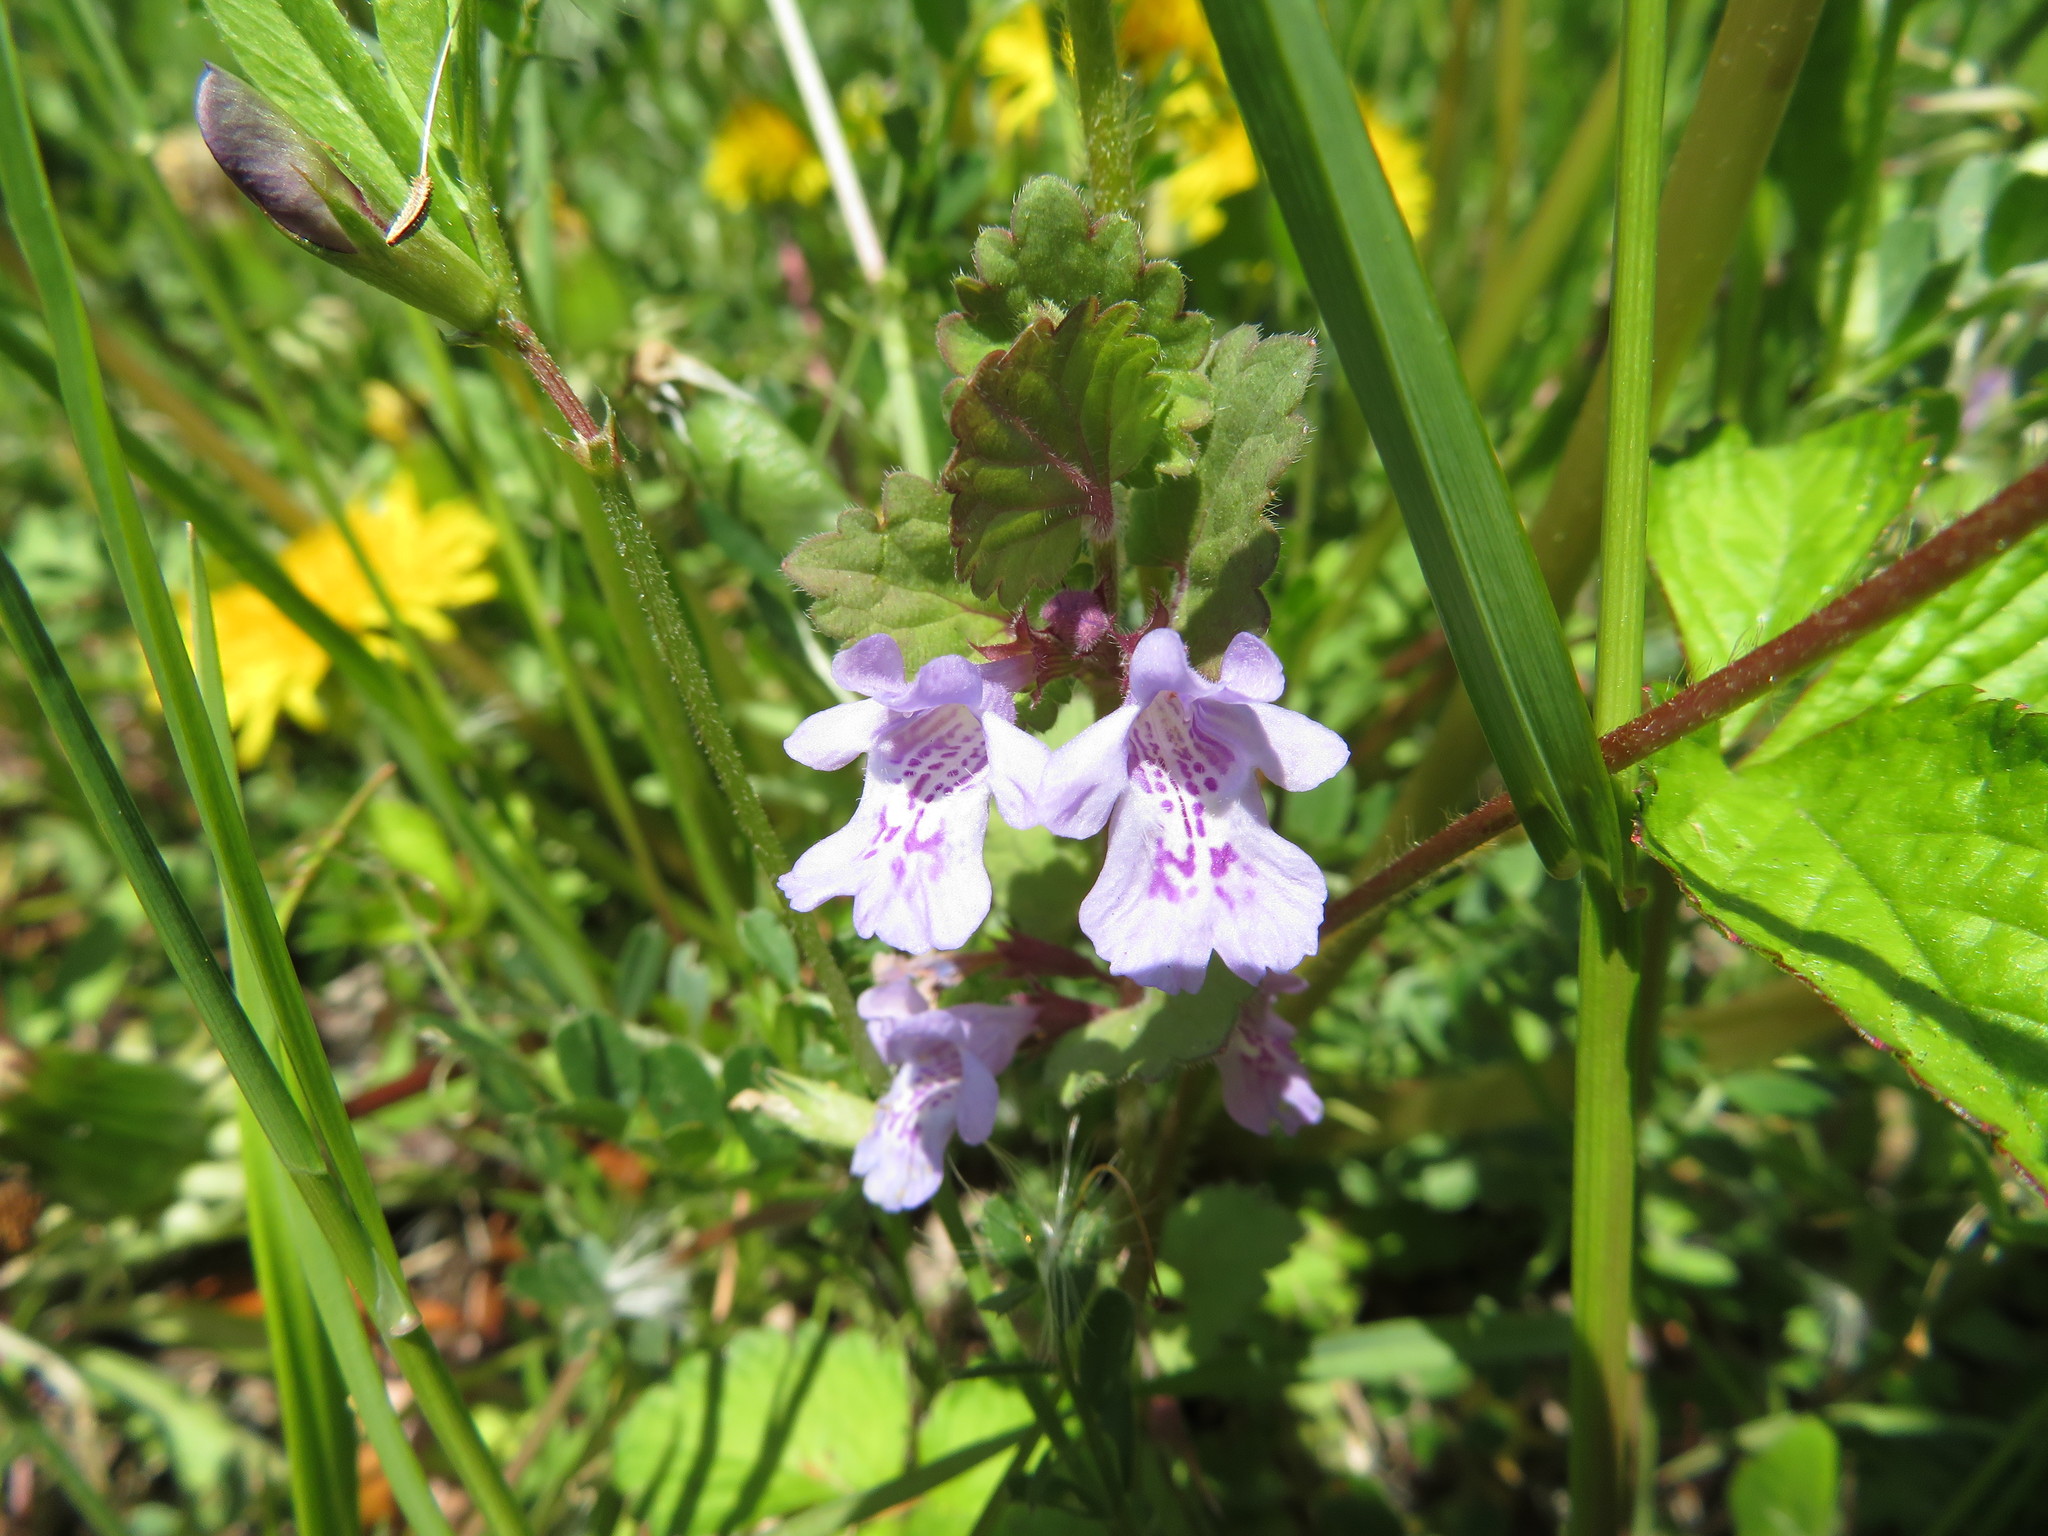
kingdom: Plantae
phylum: Tracheophyta
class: Magnoliopsida
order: Lamiales
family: Lamiaceae
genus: Glechoma
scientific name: Glechoma grandis
